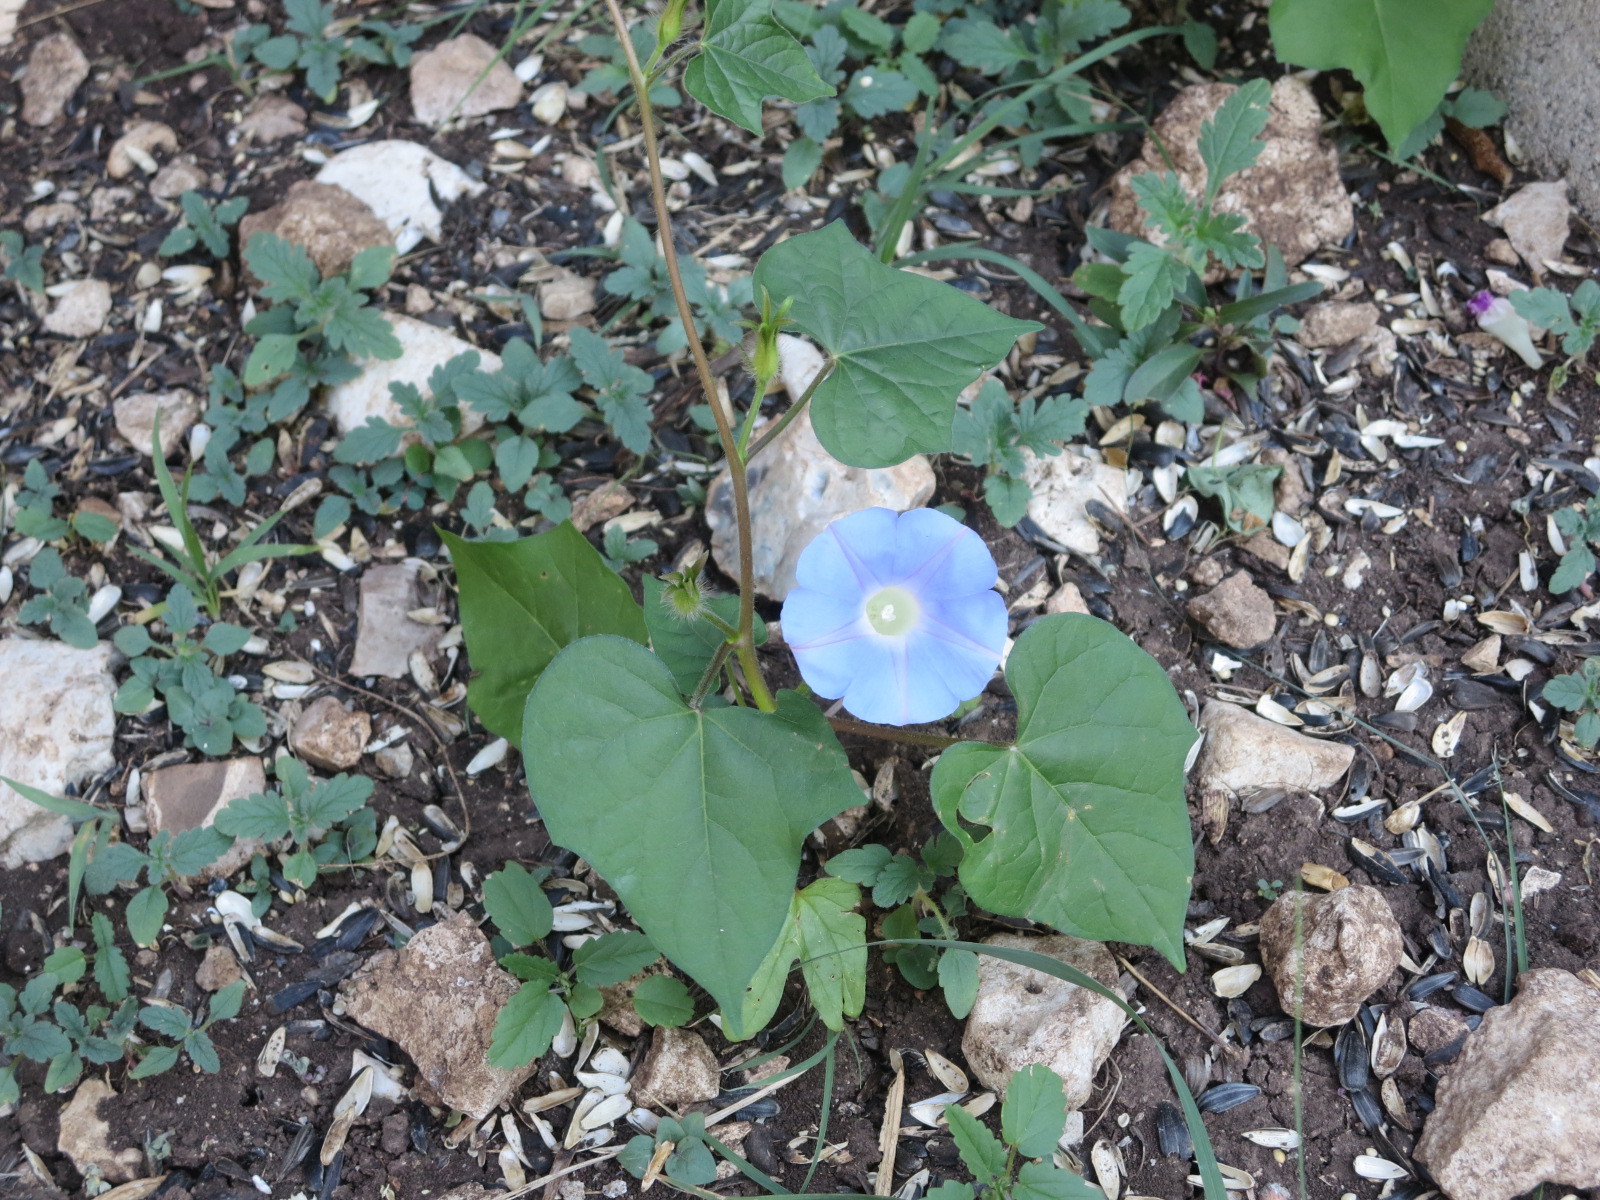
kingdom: Plantae
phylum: Tracheophyta
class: Magnoliopsida
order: Solanales
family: Convolvulaceae
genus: Ipomoea
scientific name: Ipomoea hederacea
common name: Ivy-leaved morning-glory
